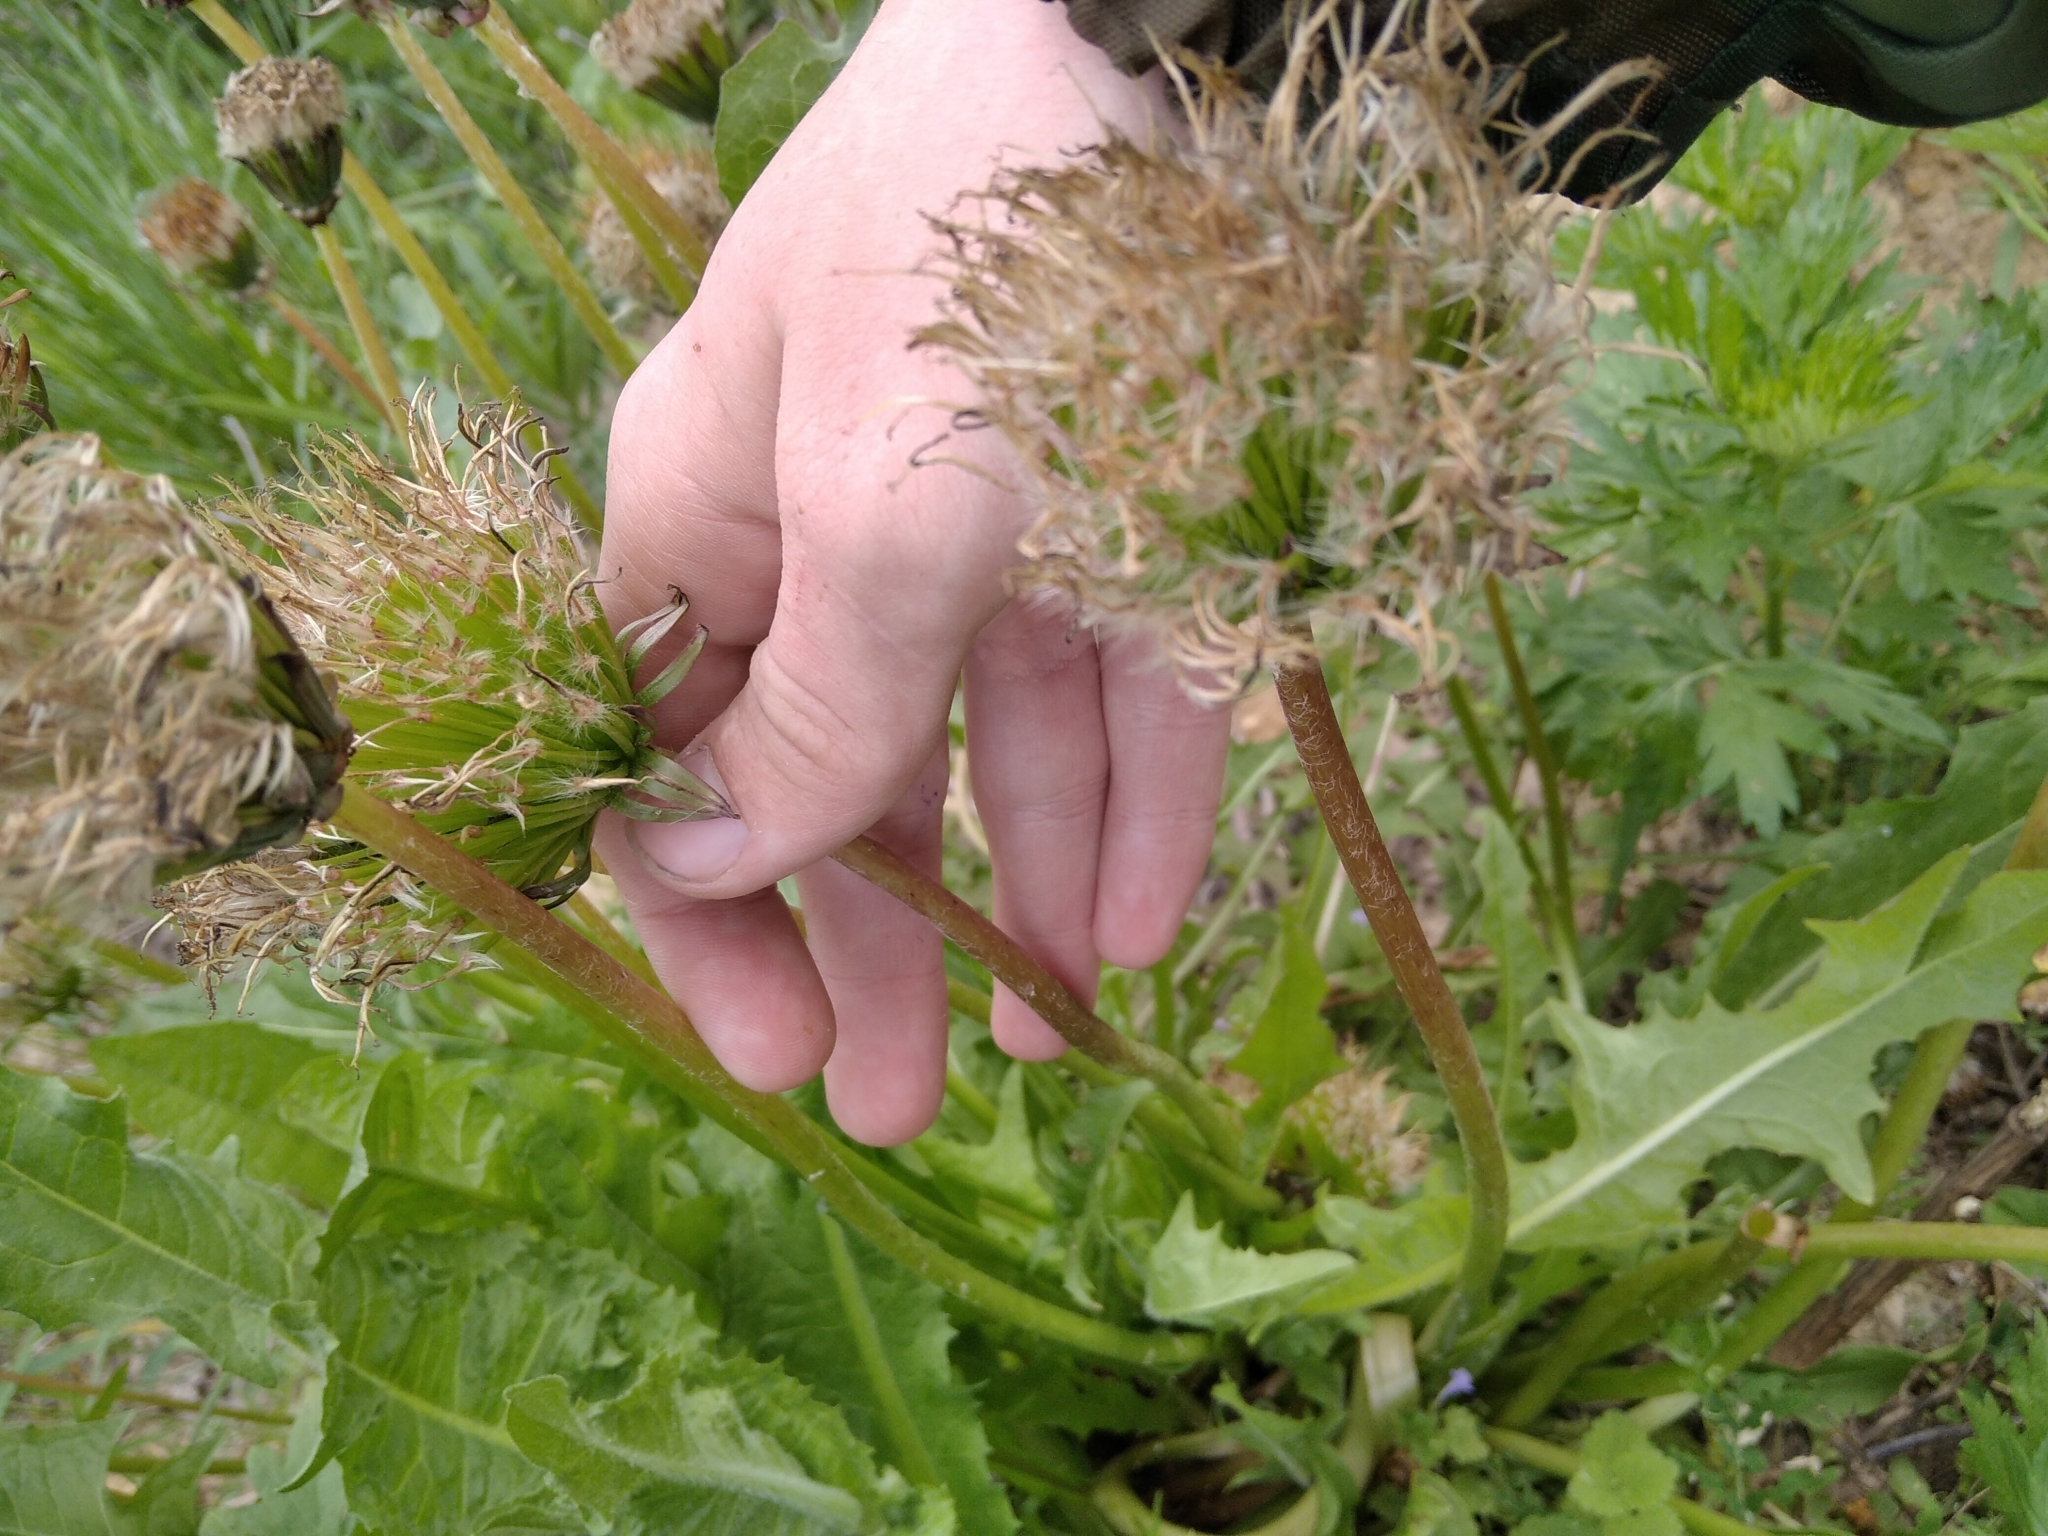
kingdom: Plantae
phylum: Tracheophyta
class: Magnoliopsida
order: Asterales
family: Asteraceae
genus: Taraxacum
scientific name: Taraxacum officinale
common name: Common dandelion
